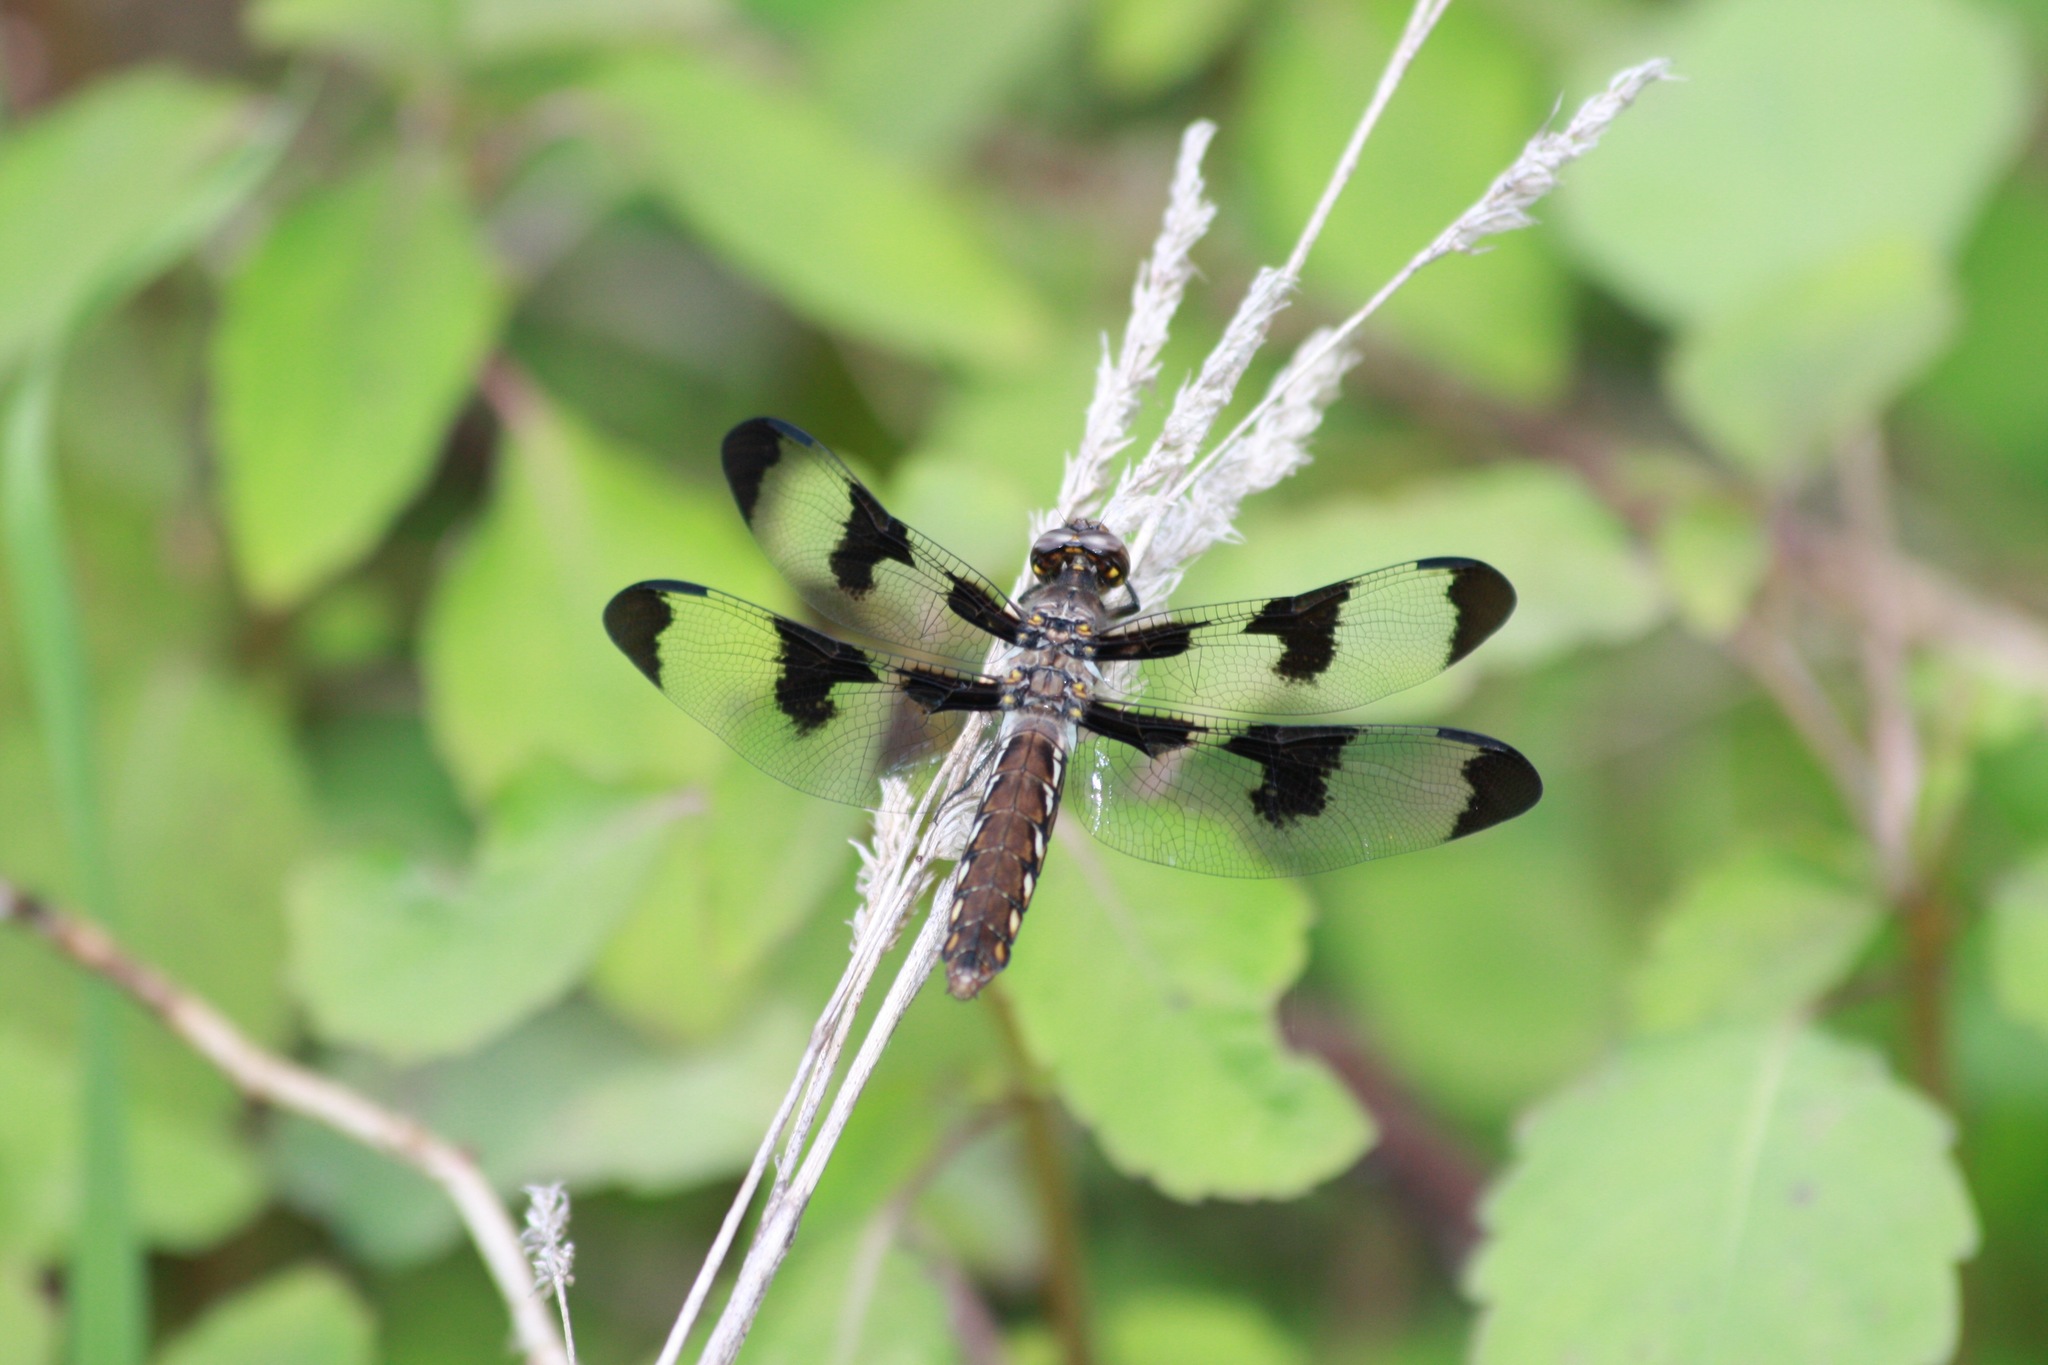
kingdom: Animalia
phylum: Arthropoda
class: Insecta
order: Odonata
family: Libellulidae
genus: Plathemis
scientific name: Plathemis lydia
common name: Common whitetail
